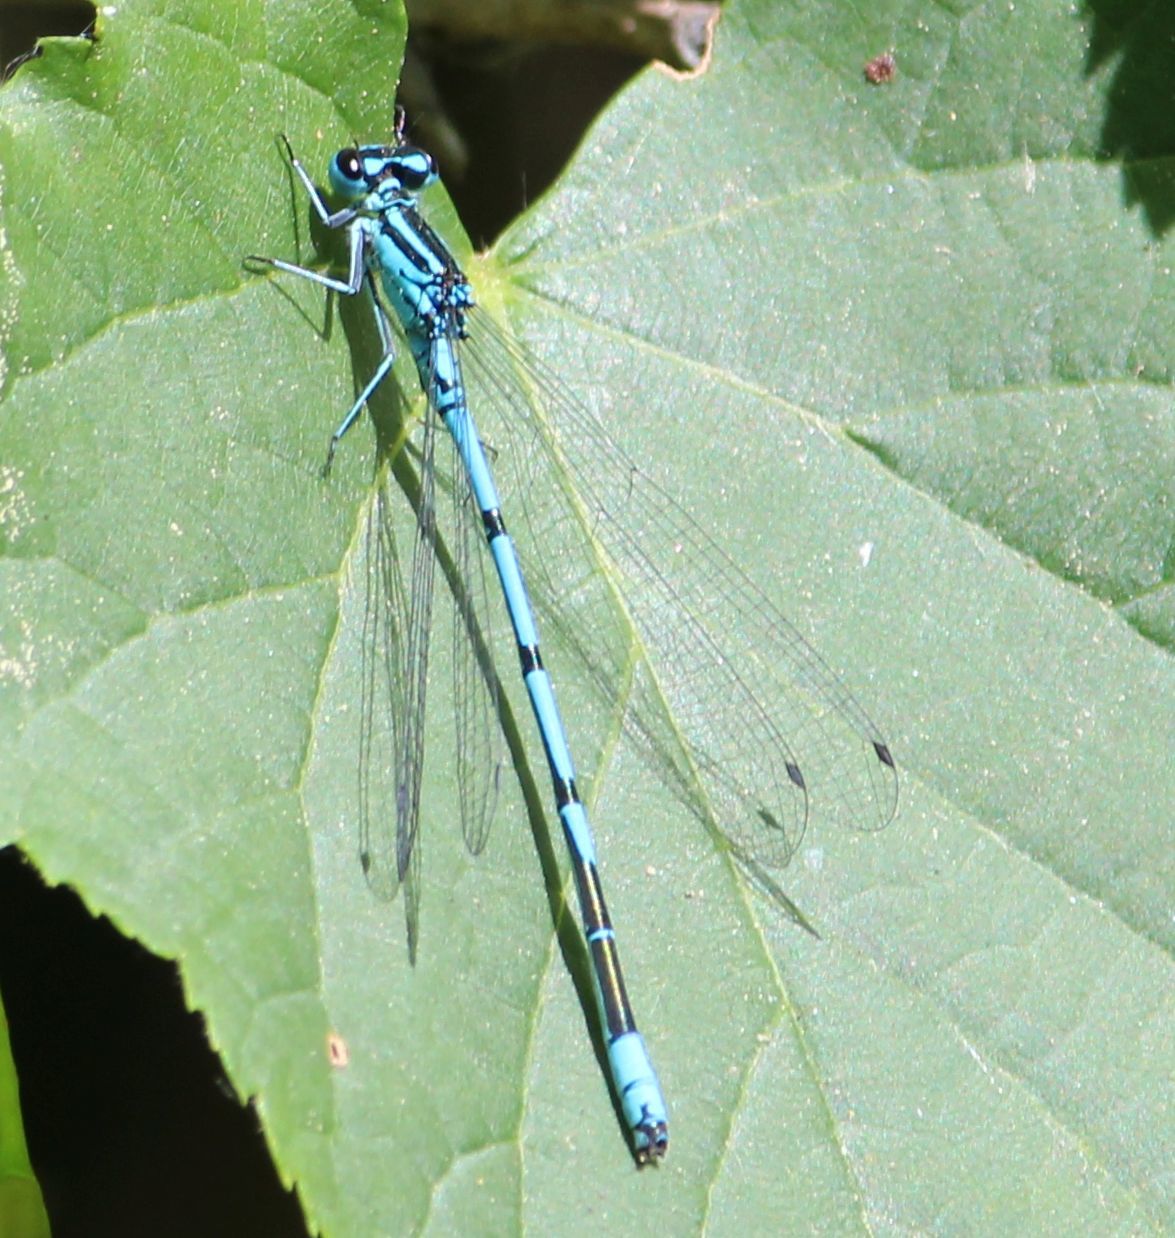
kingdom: Animalia
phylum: Arthropoda
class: Insecta
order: Odonata
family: Coenagrionidae
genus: Coenagrion
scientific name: Coenagrion puella
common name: Azure damselfly
